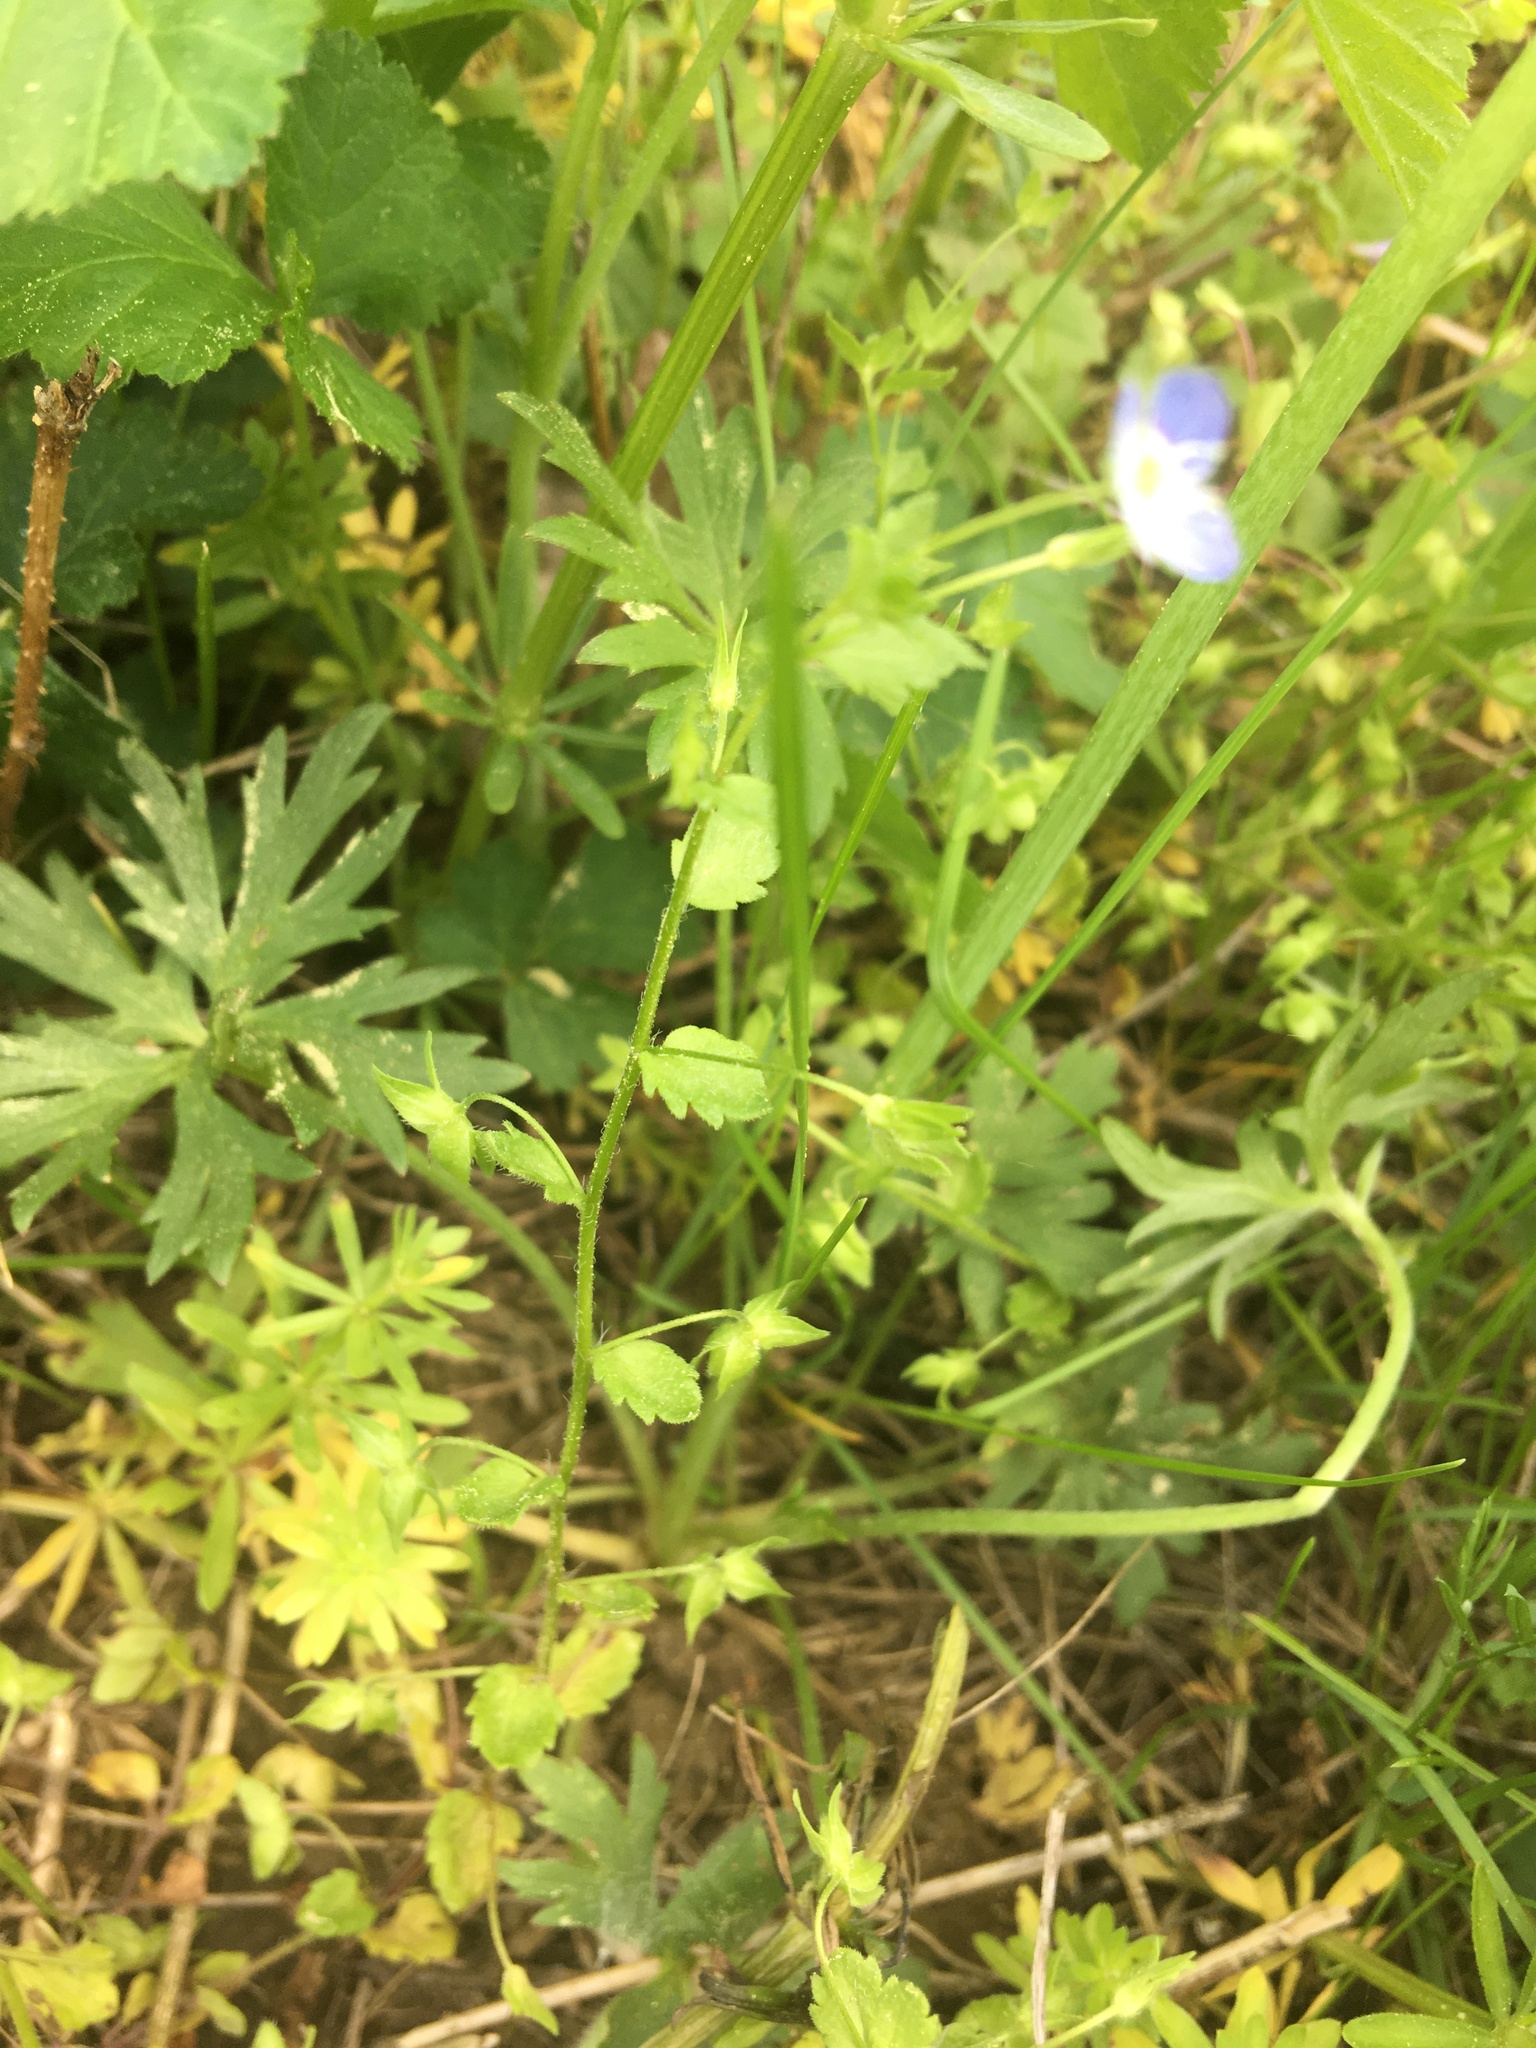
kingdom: Plantae
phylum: Tracheophyta
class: Magnoliopsida
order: Lamiales
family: Plantaginaceae
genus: Veronica
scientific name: Veronica persica
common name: Common field-speedwell
